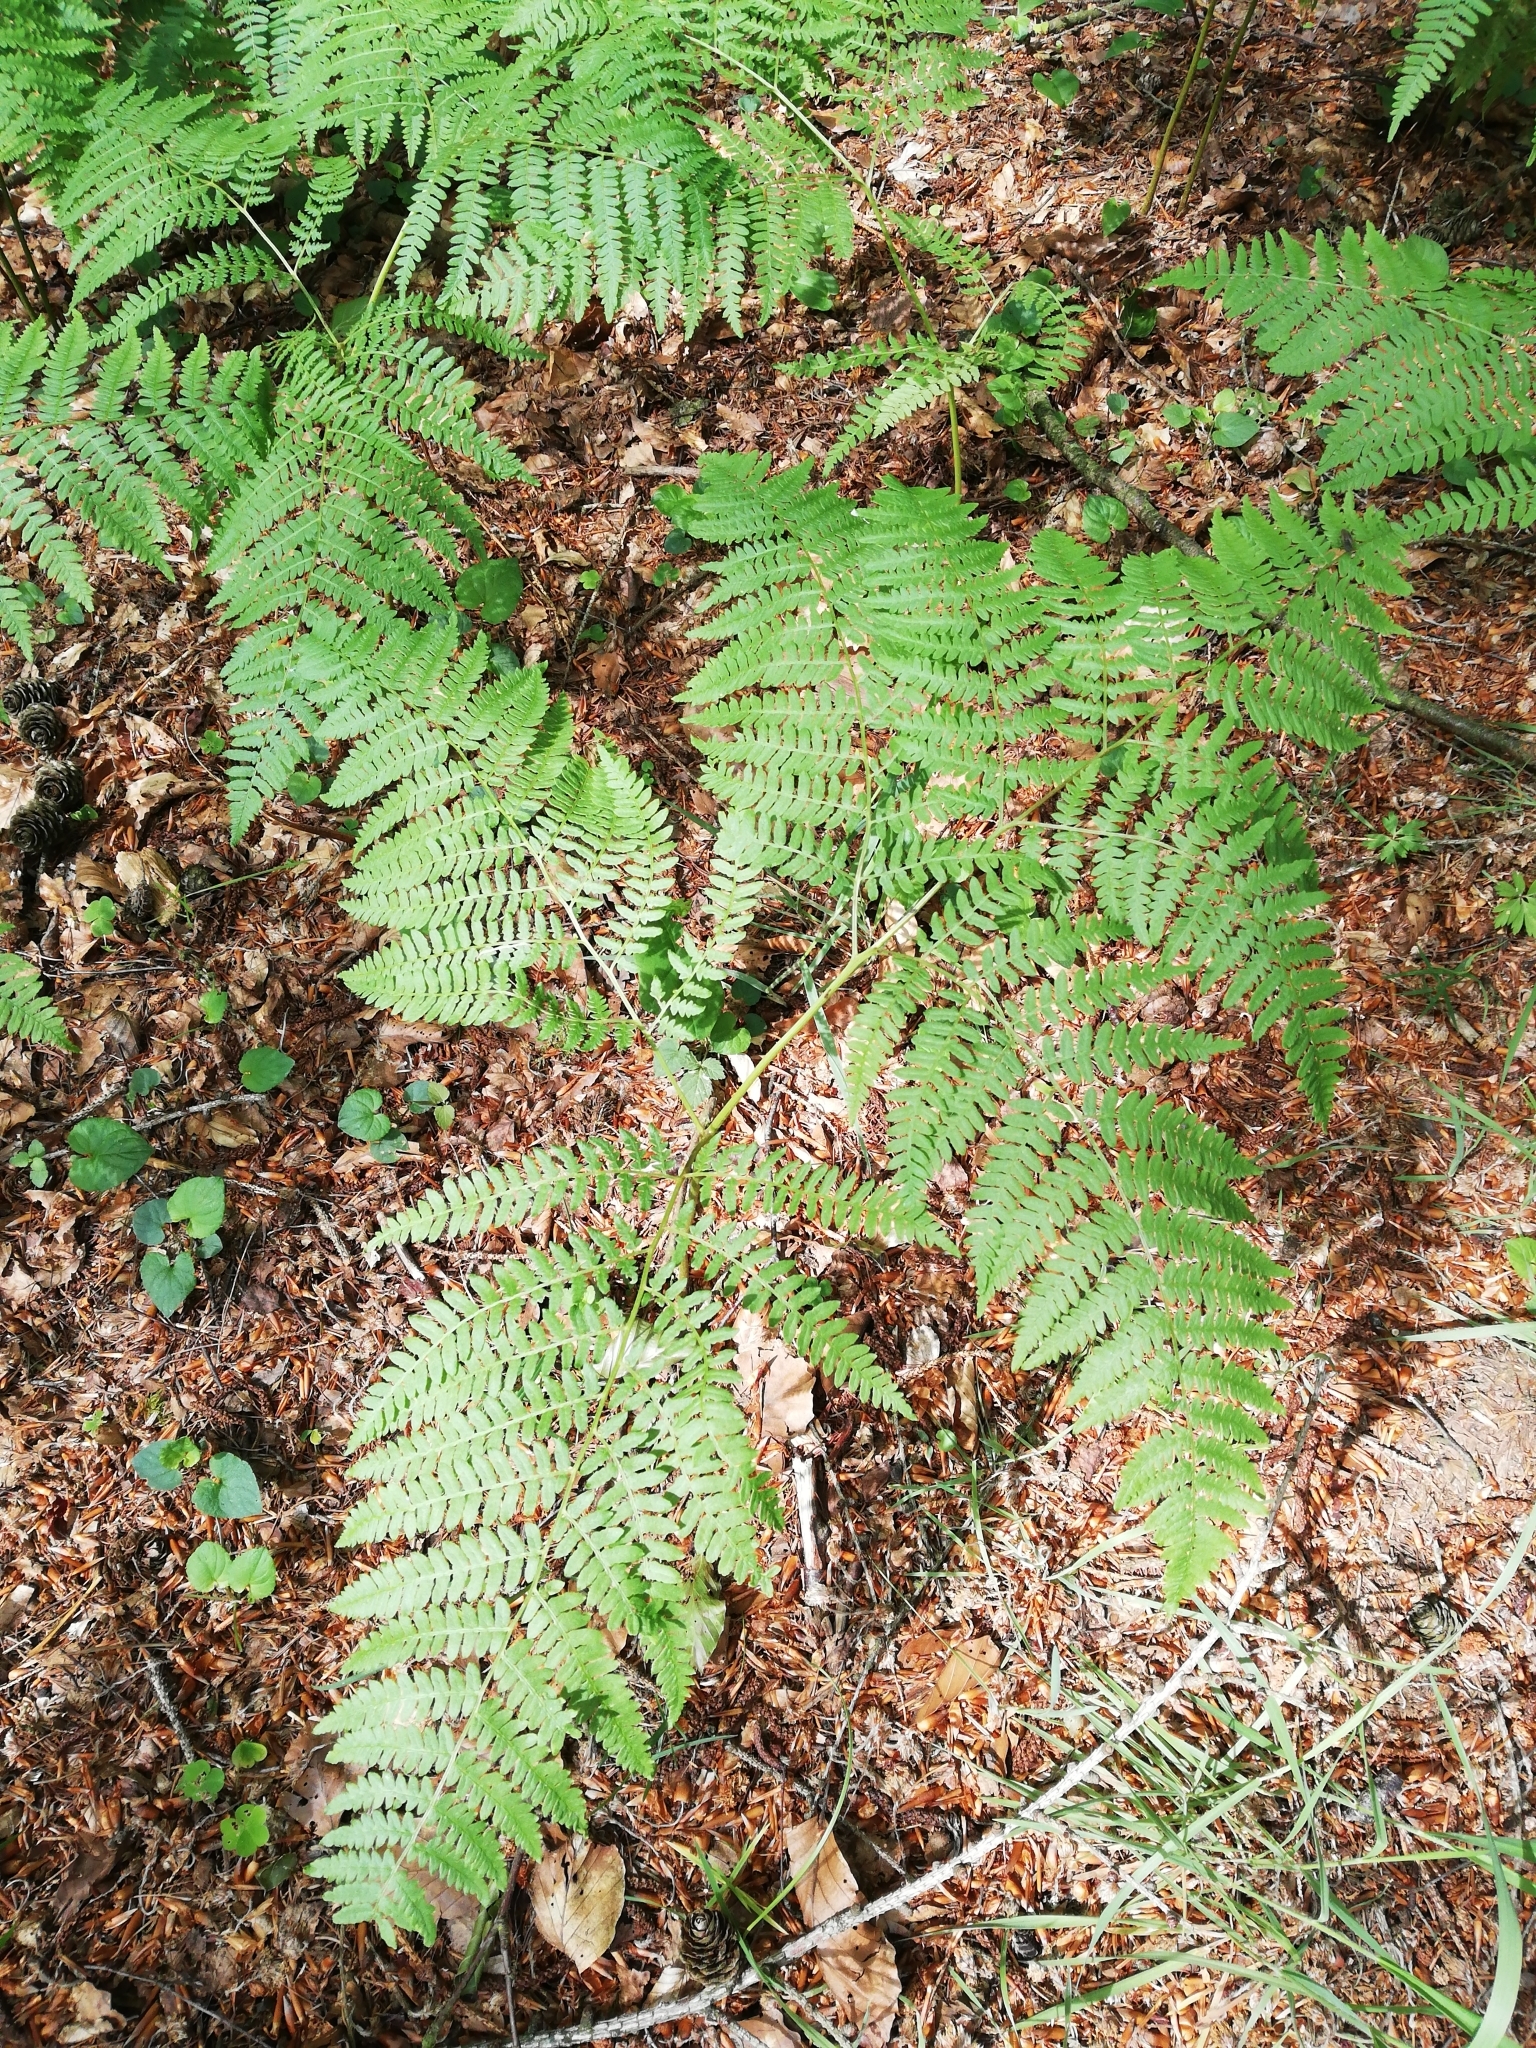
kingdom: Plantae
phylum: Tracheophyta
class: Polypodiopsida
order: Polypodiales
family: Dennstaedtiaceae
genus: Pteridium
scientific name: Pteridium aquilinum
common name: Bracken
